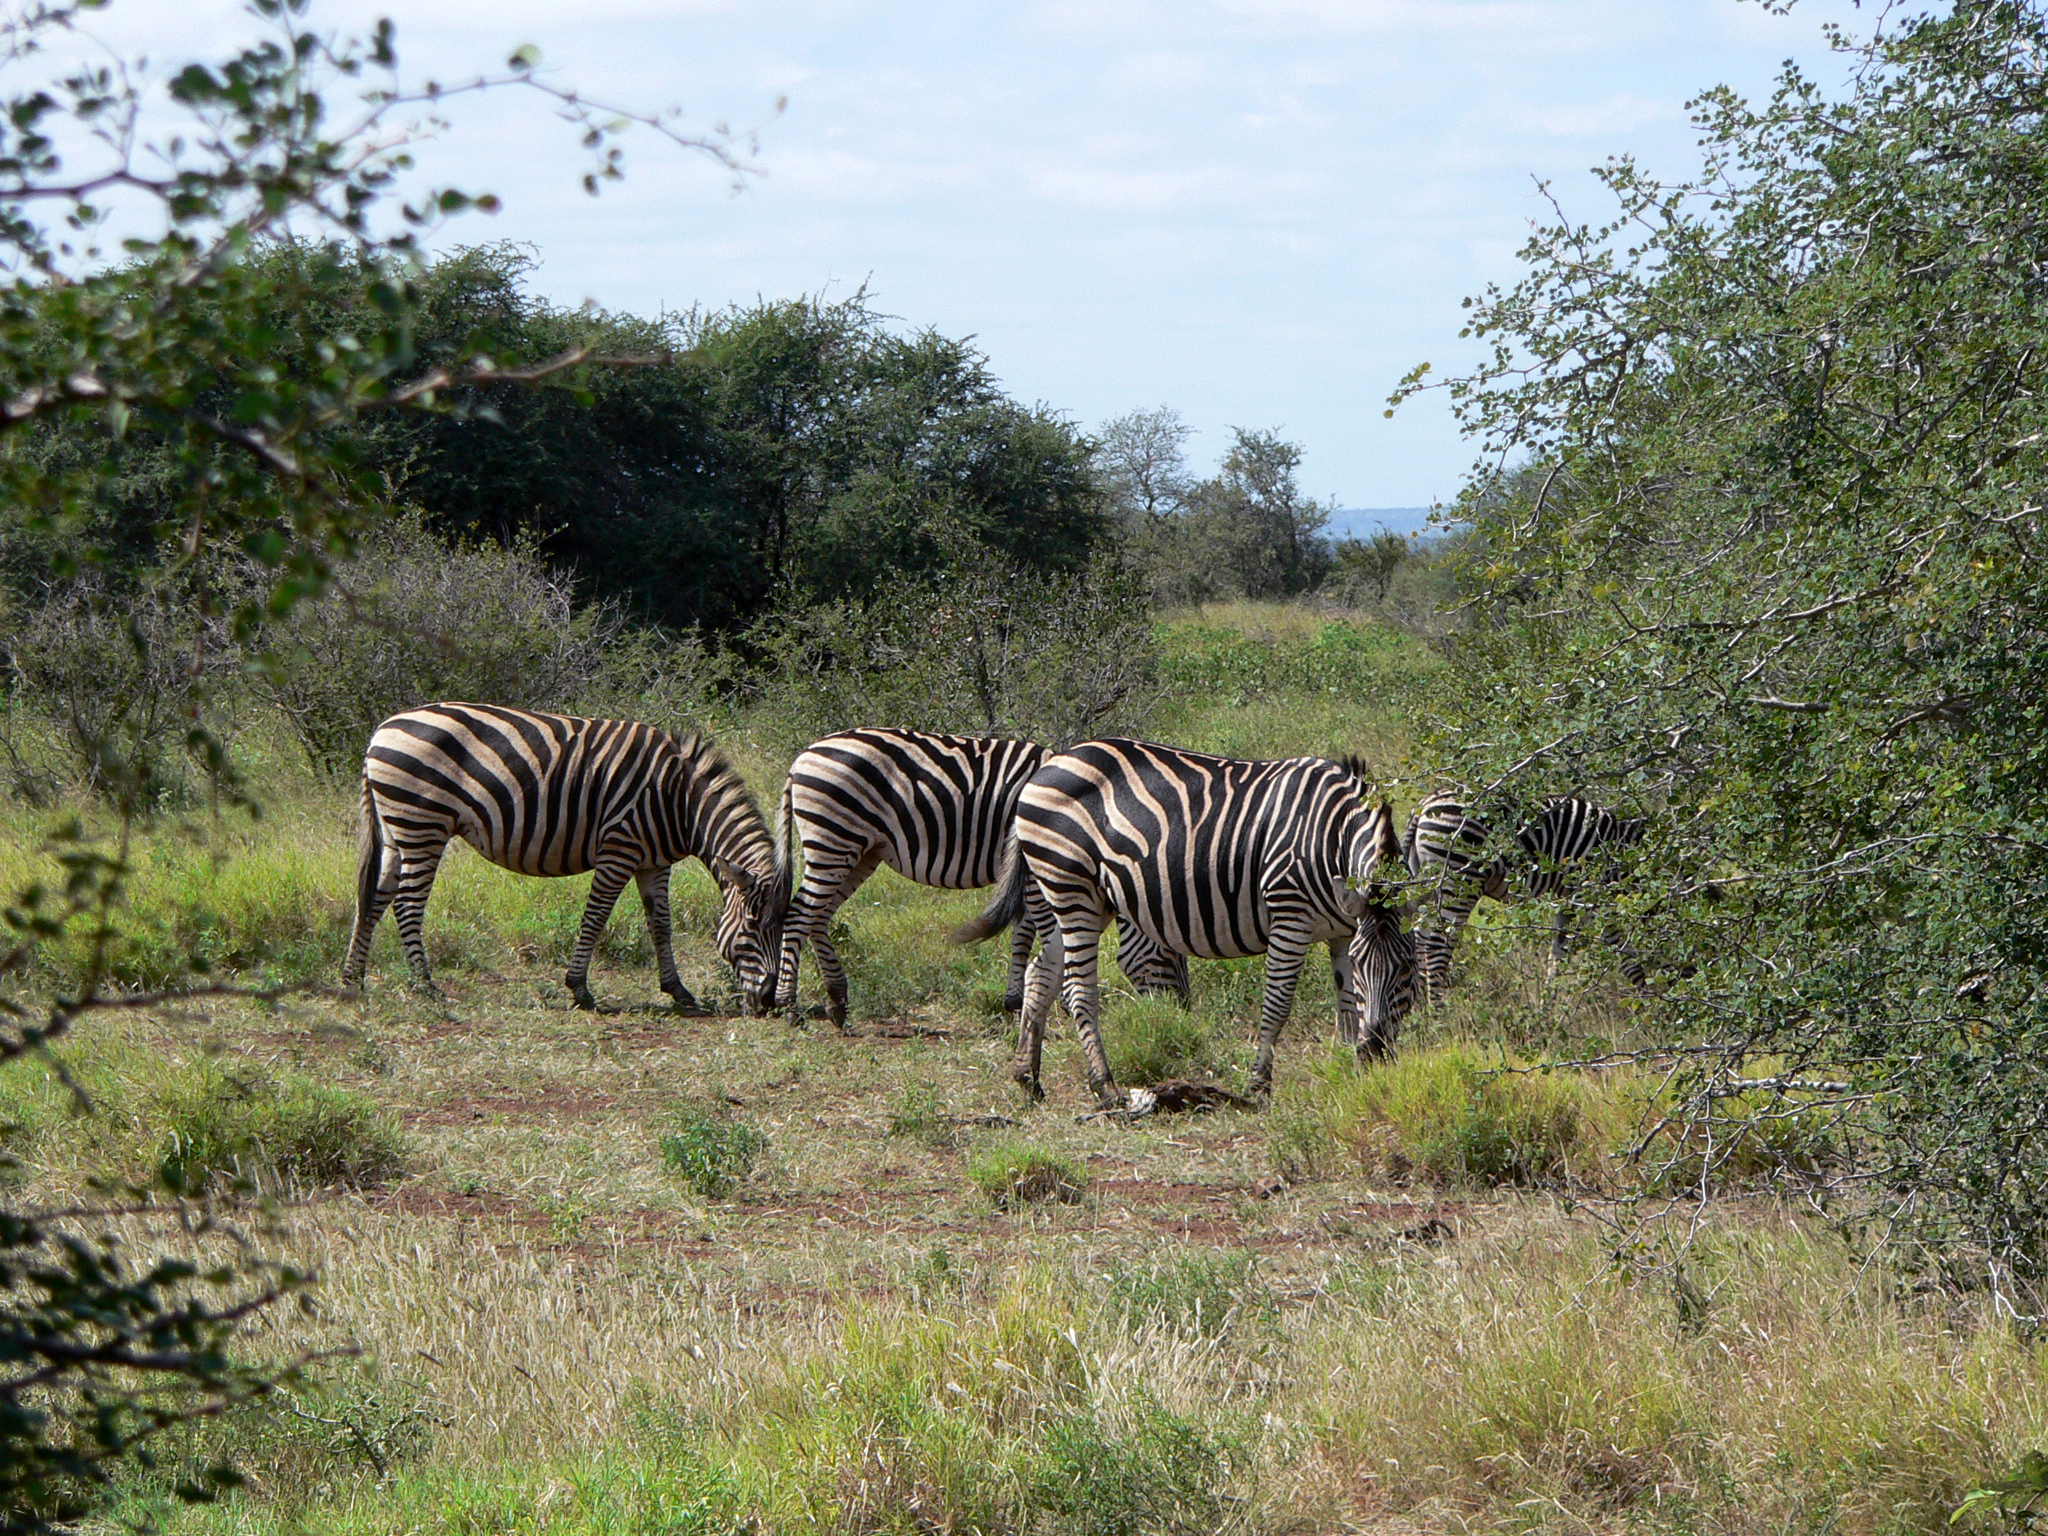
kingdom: Animalia
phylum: Chordata
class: Mammalia
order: Perissodactyla
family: Equidae
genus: Equus
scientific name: Equus quagga
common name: Plains zebra
